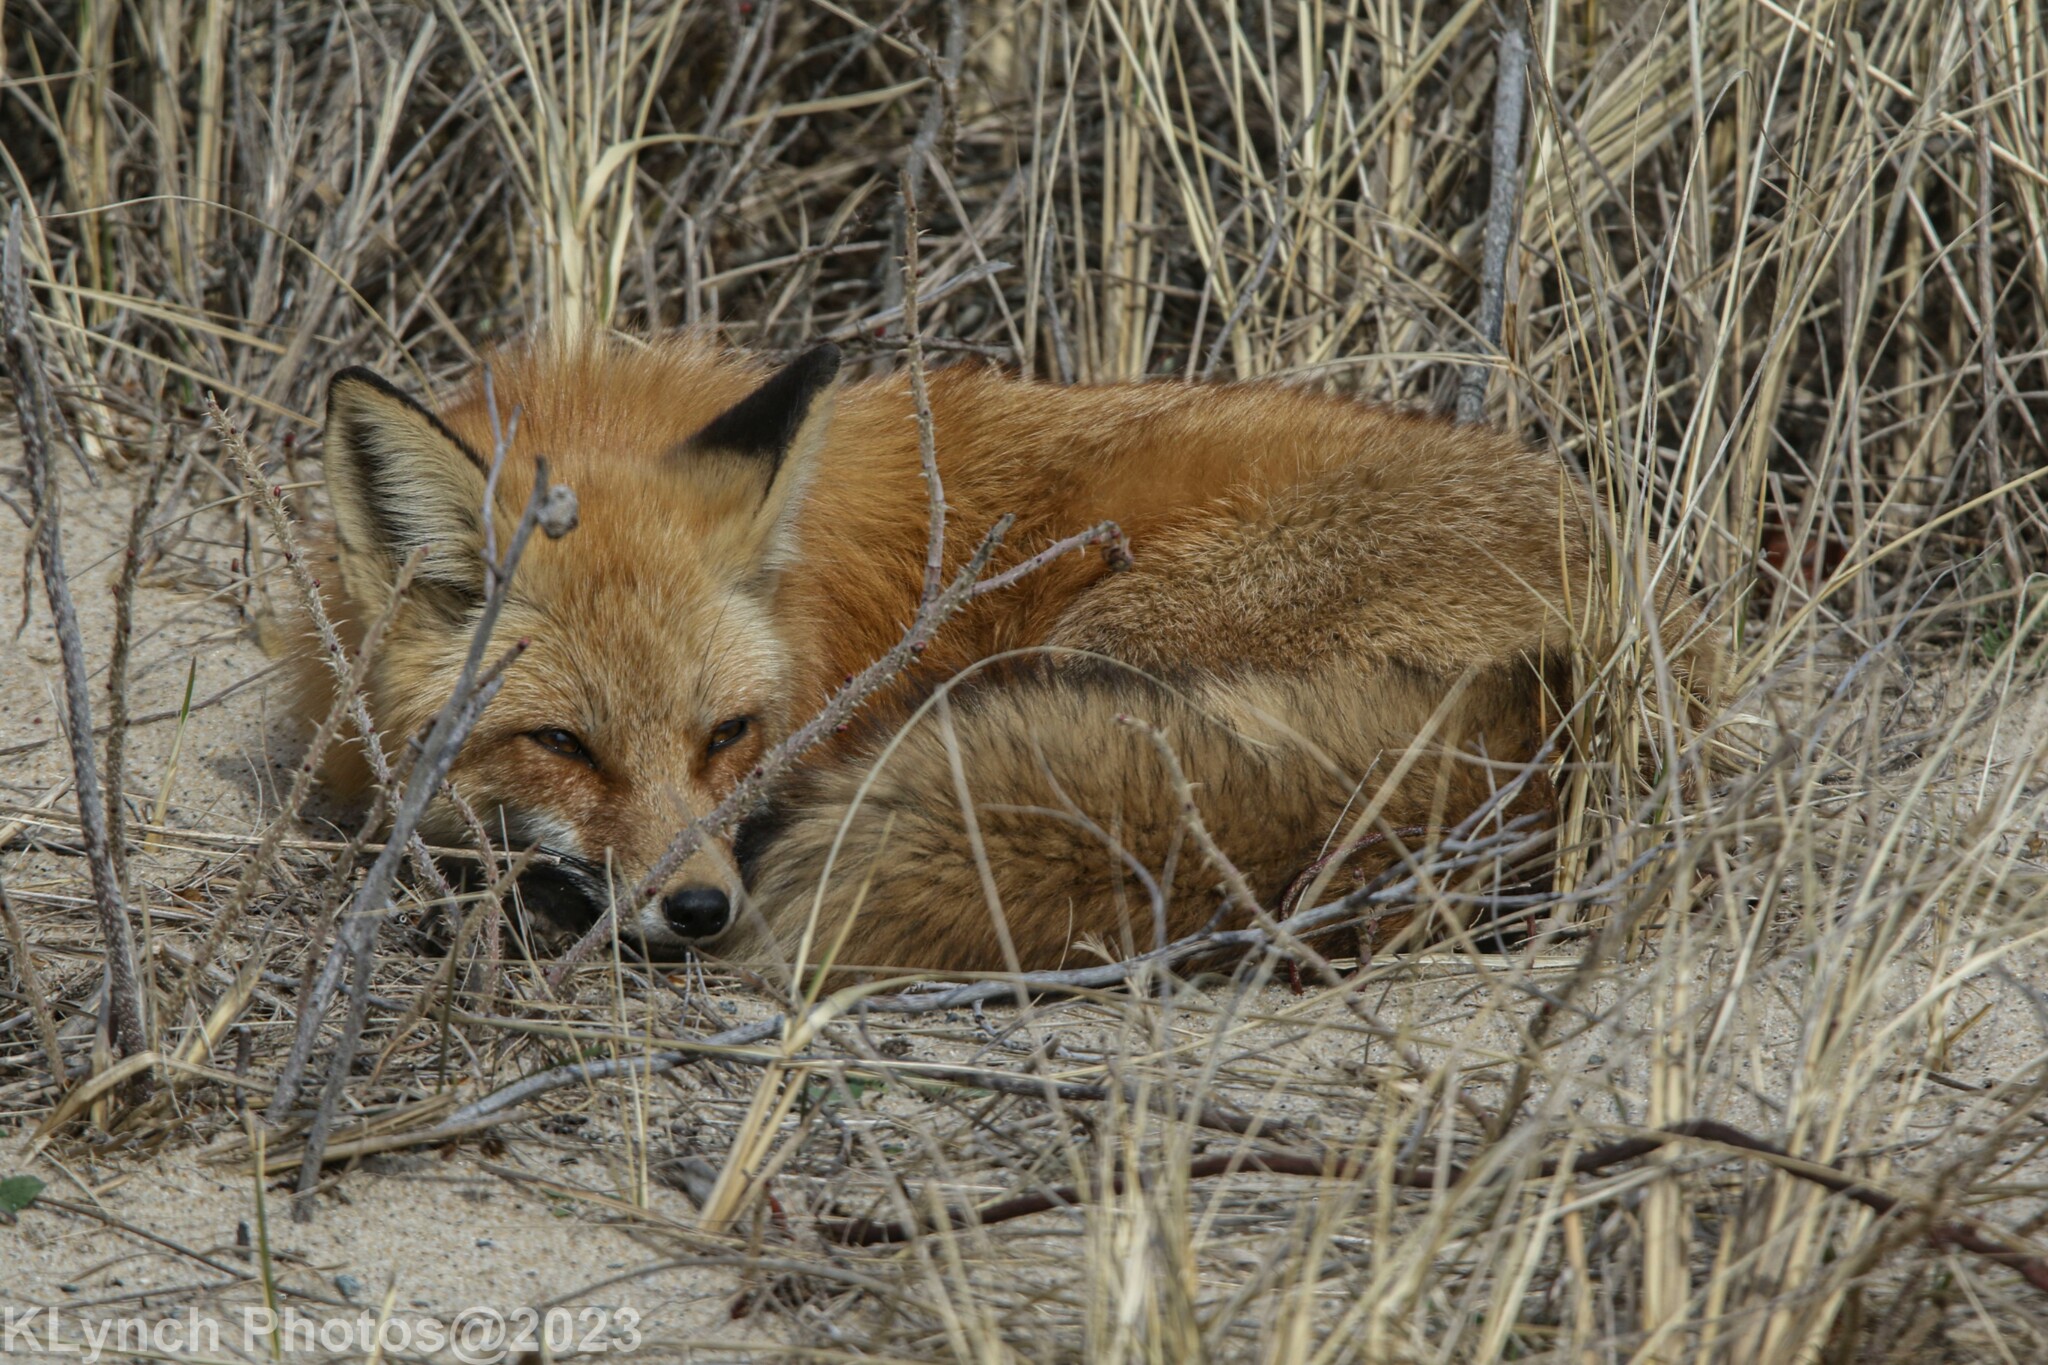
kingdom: Animalia
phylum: Chordata
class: Mammalia
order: Carnivora
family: Canidae
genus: Vulpes
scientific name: Vulpes vulpes
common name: Red fox
